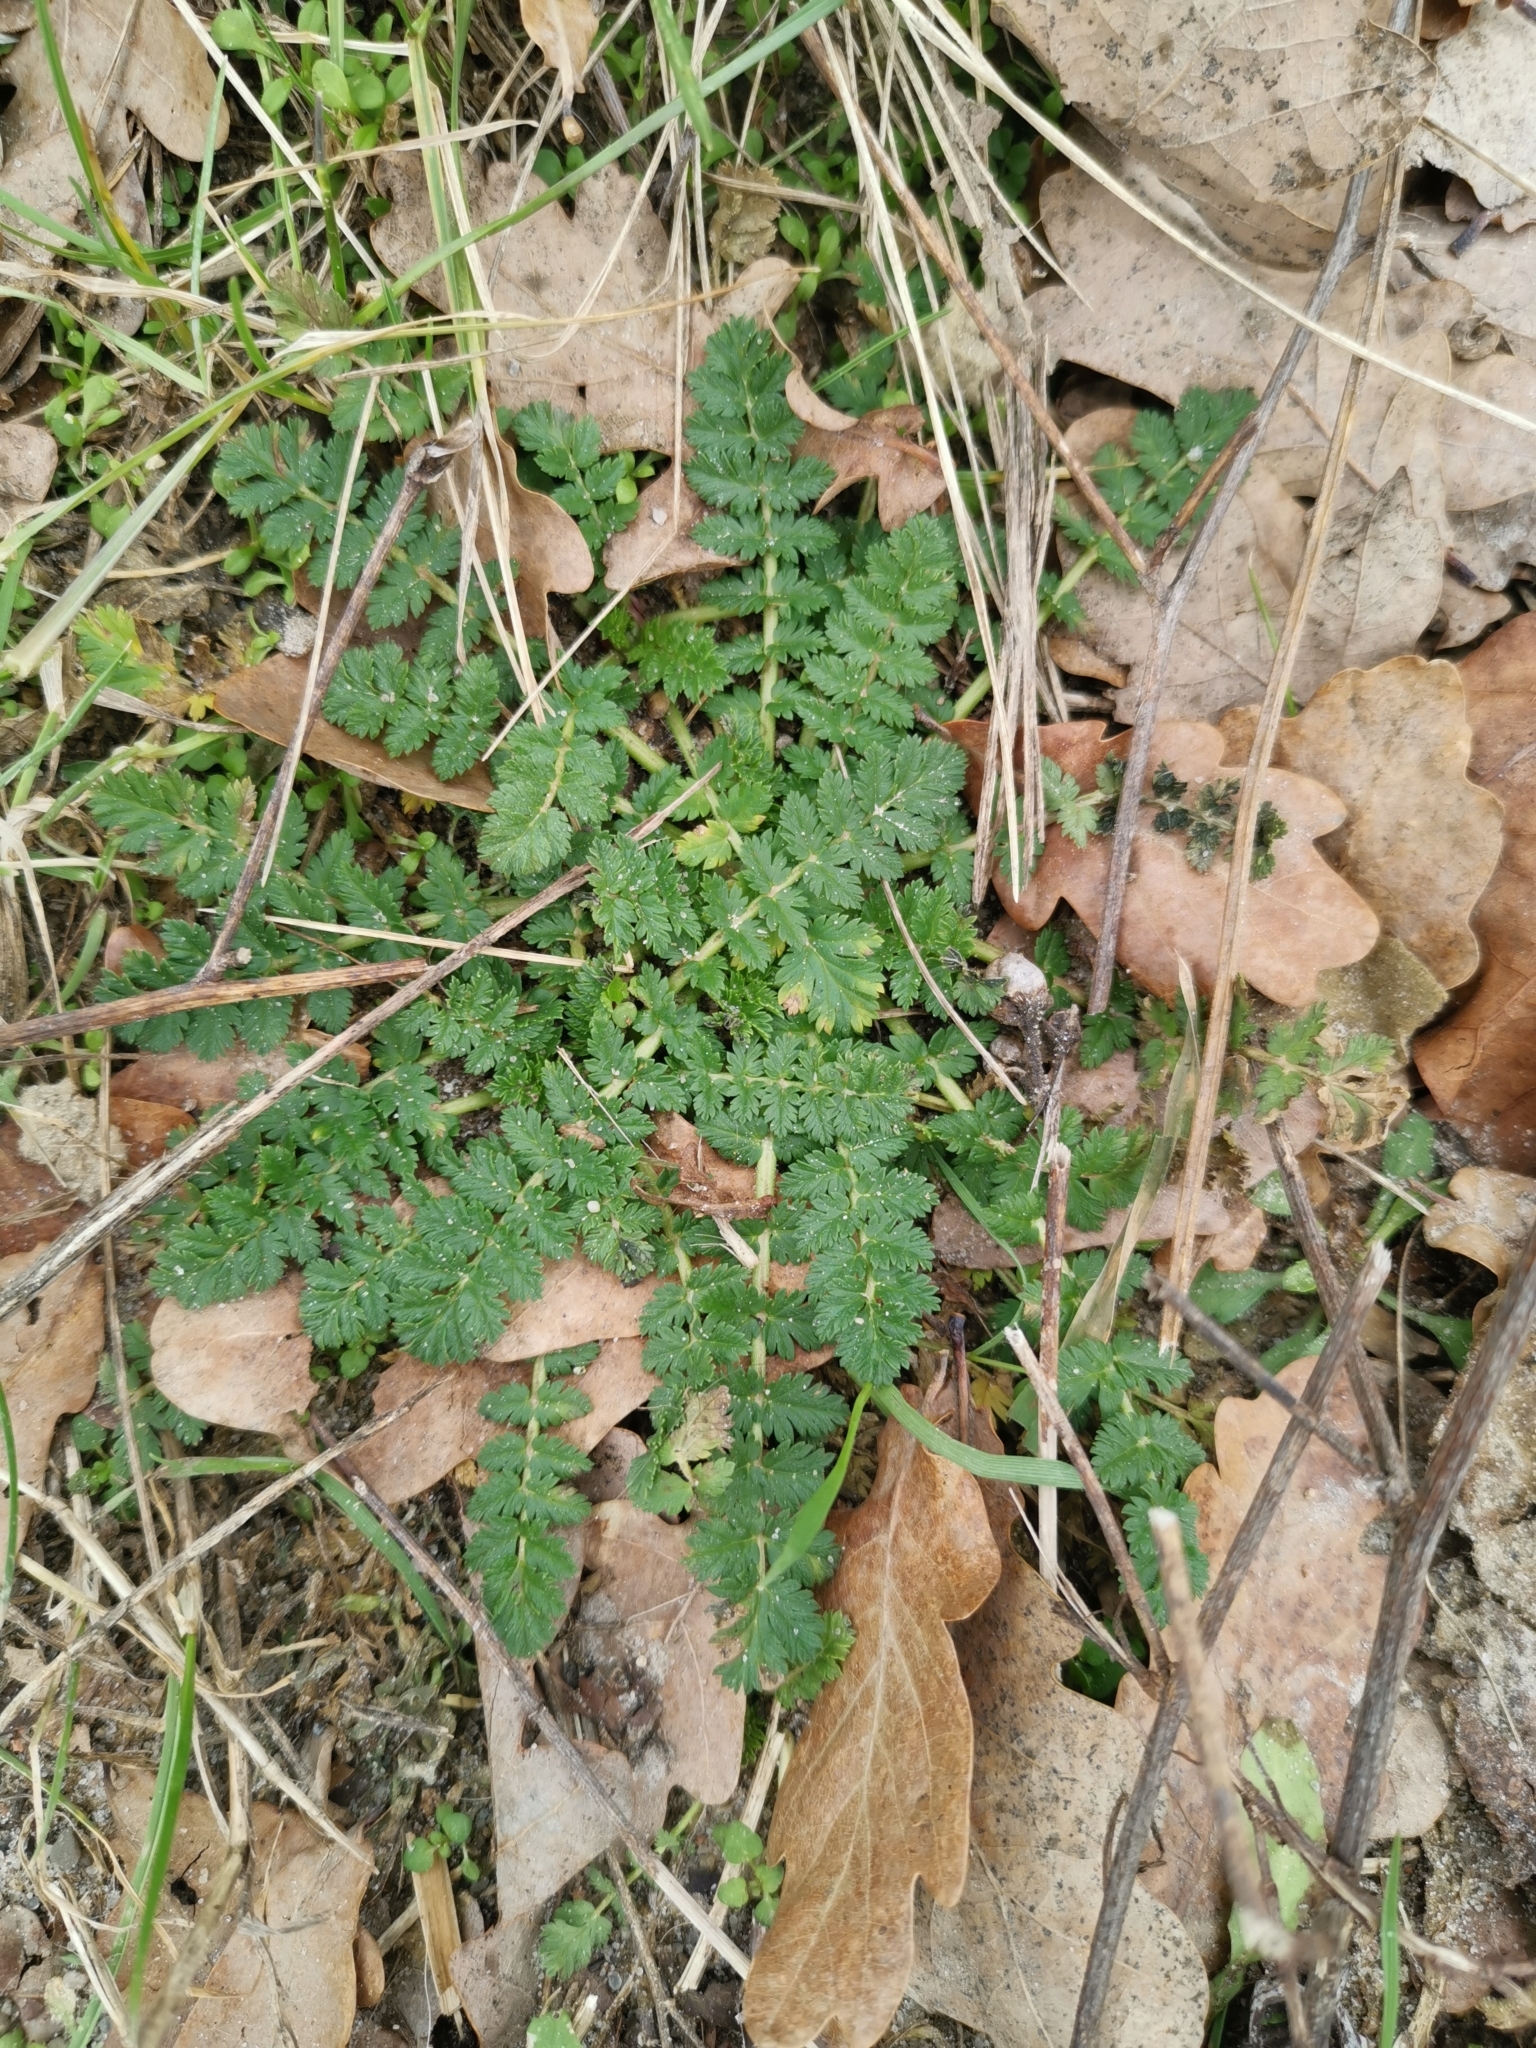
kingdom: Plantae
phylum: Tracheophyta
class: Magnoliopsida
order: Geraniales
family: Geraniaceae
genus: Erodium
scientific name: Erodium cicutarium
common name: Common stork's-bill
